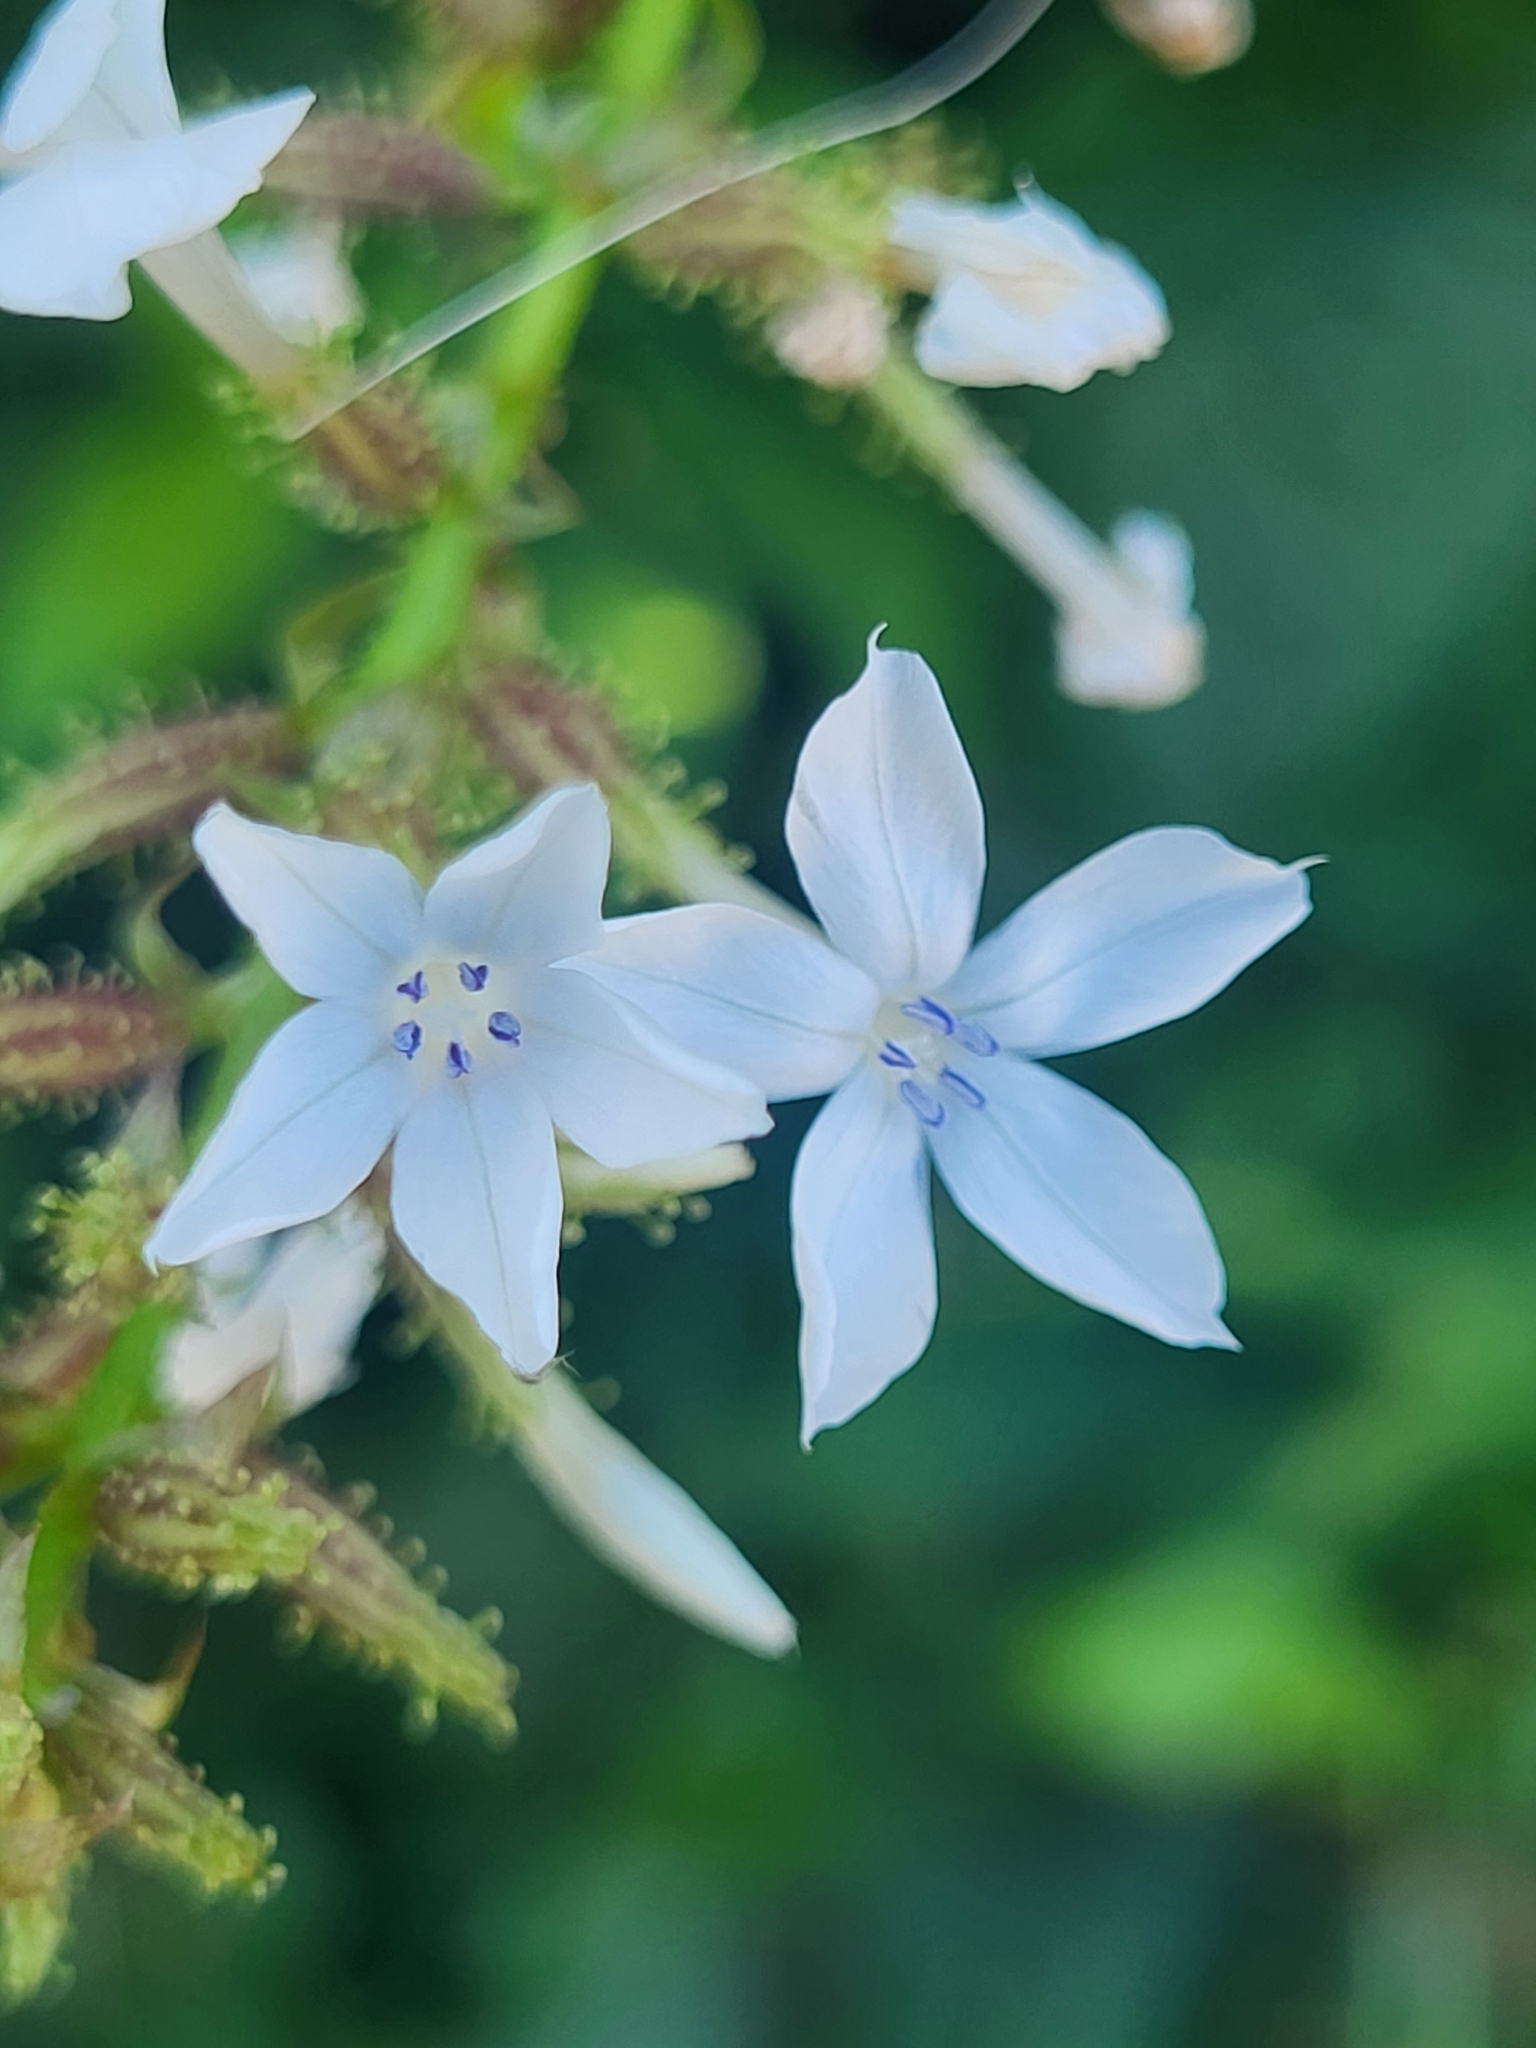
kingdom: Plantae
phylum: Tracheophyta
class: Magnoliopsida
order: Caryophyllales
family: Plumbaginaceae
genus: Plumbago
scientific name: Plumbago zeylanica
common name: Doctorbush
